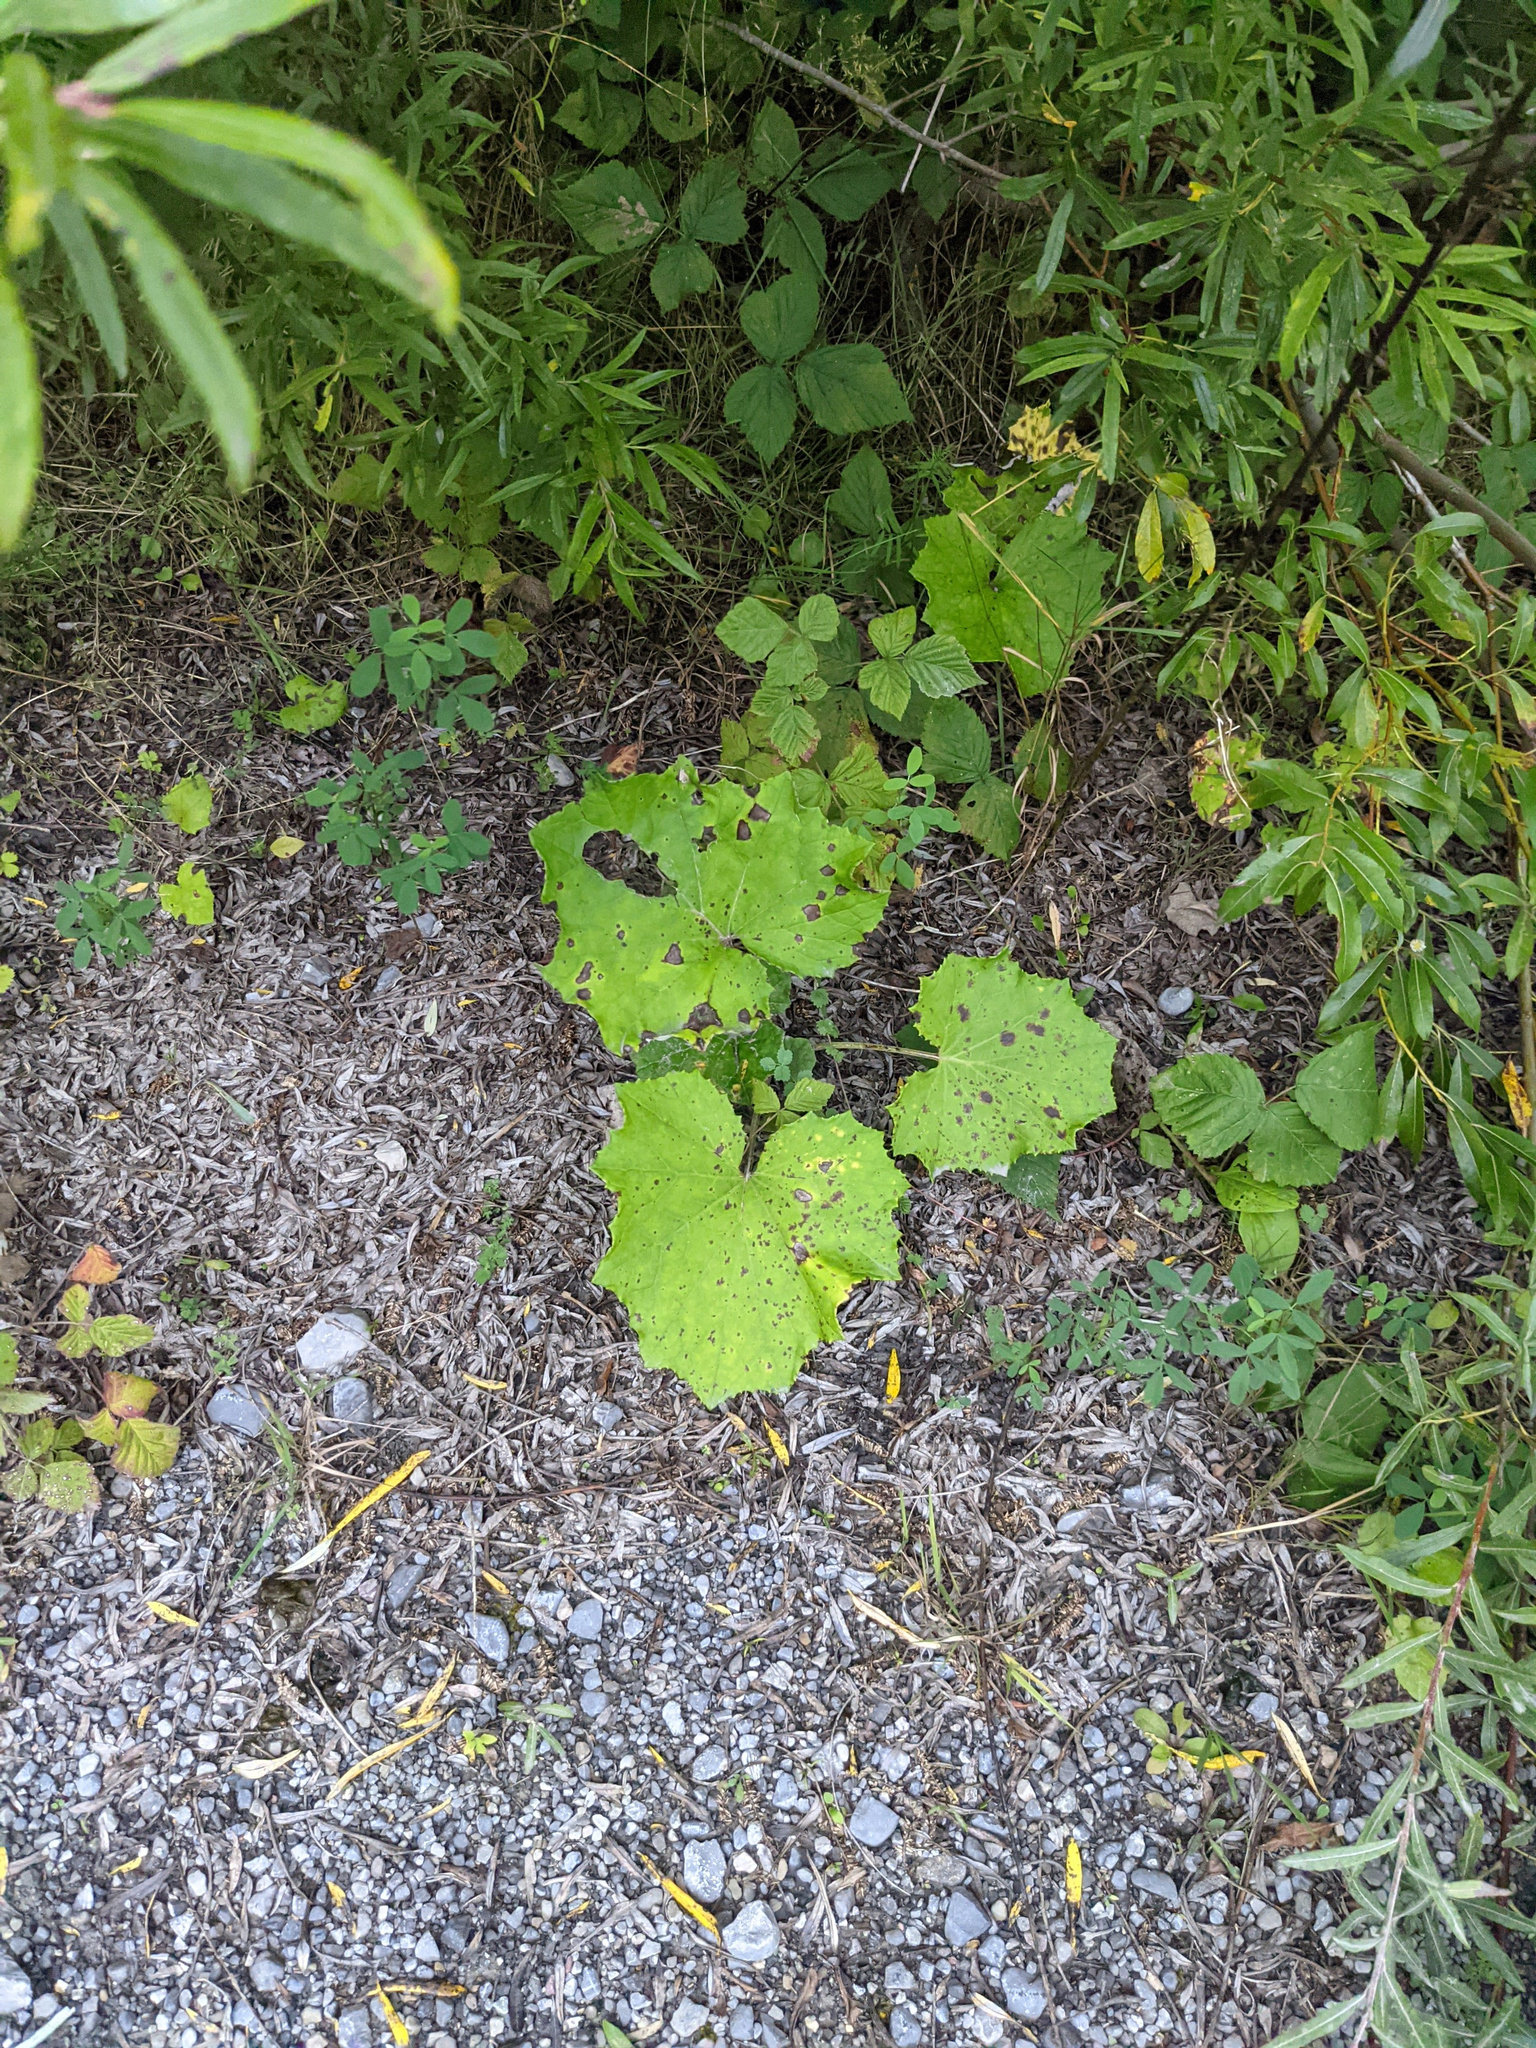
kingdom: Plantae
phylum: Tracheophyta
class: Magnoliopsida
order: Asterales
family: Asteraceae
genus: Tussilago
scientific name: Tussilago farfara
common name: Coltsfoot
